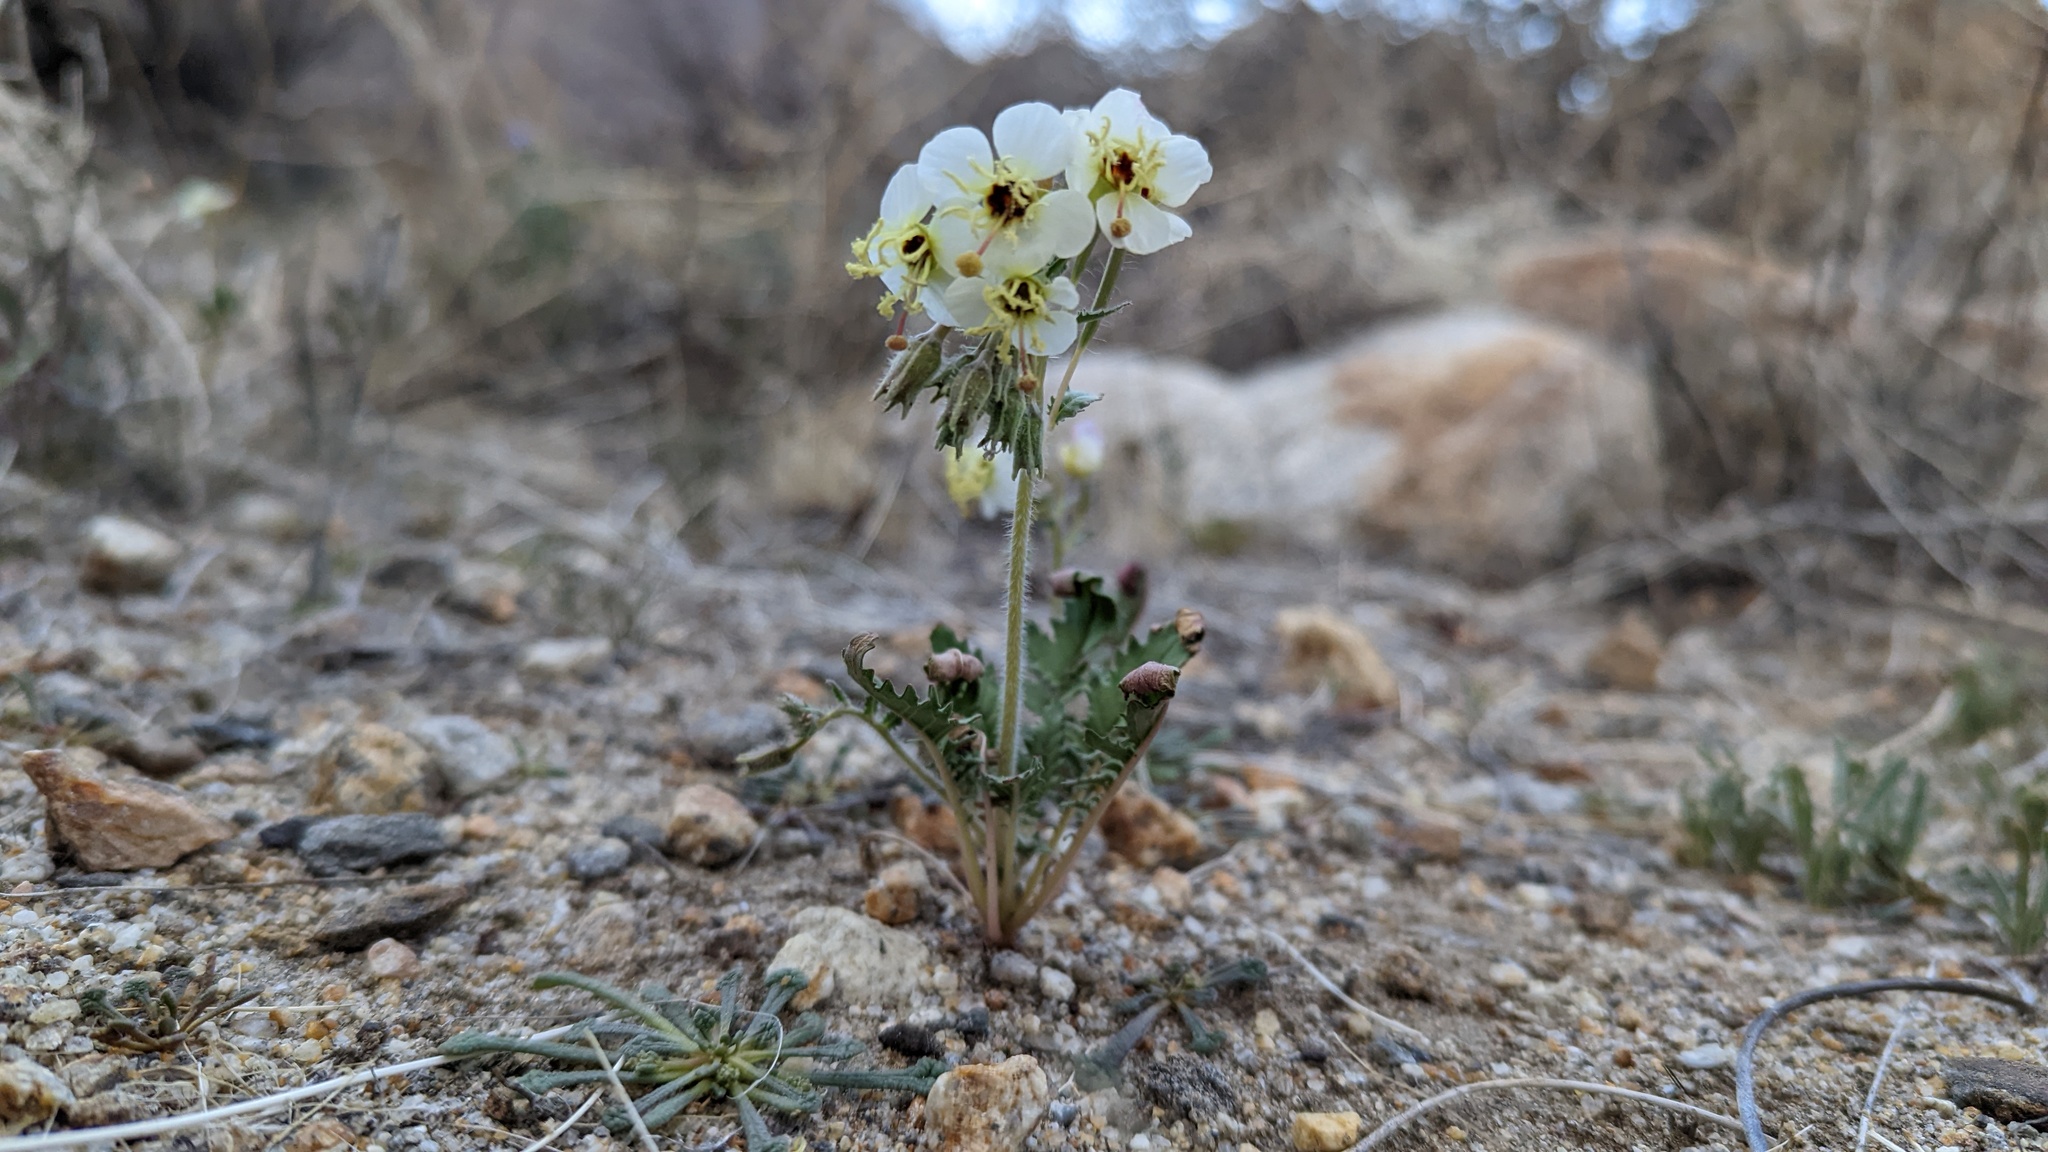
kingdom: Plantae
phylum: Tracheophyta
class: Magnoliopsida
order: Myrtales
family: Onagraceae
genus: Chylismia
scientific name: Chylismia claviformis
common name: Browneyes
